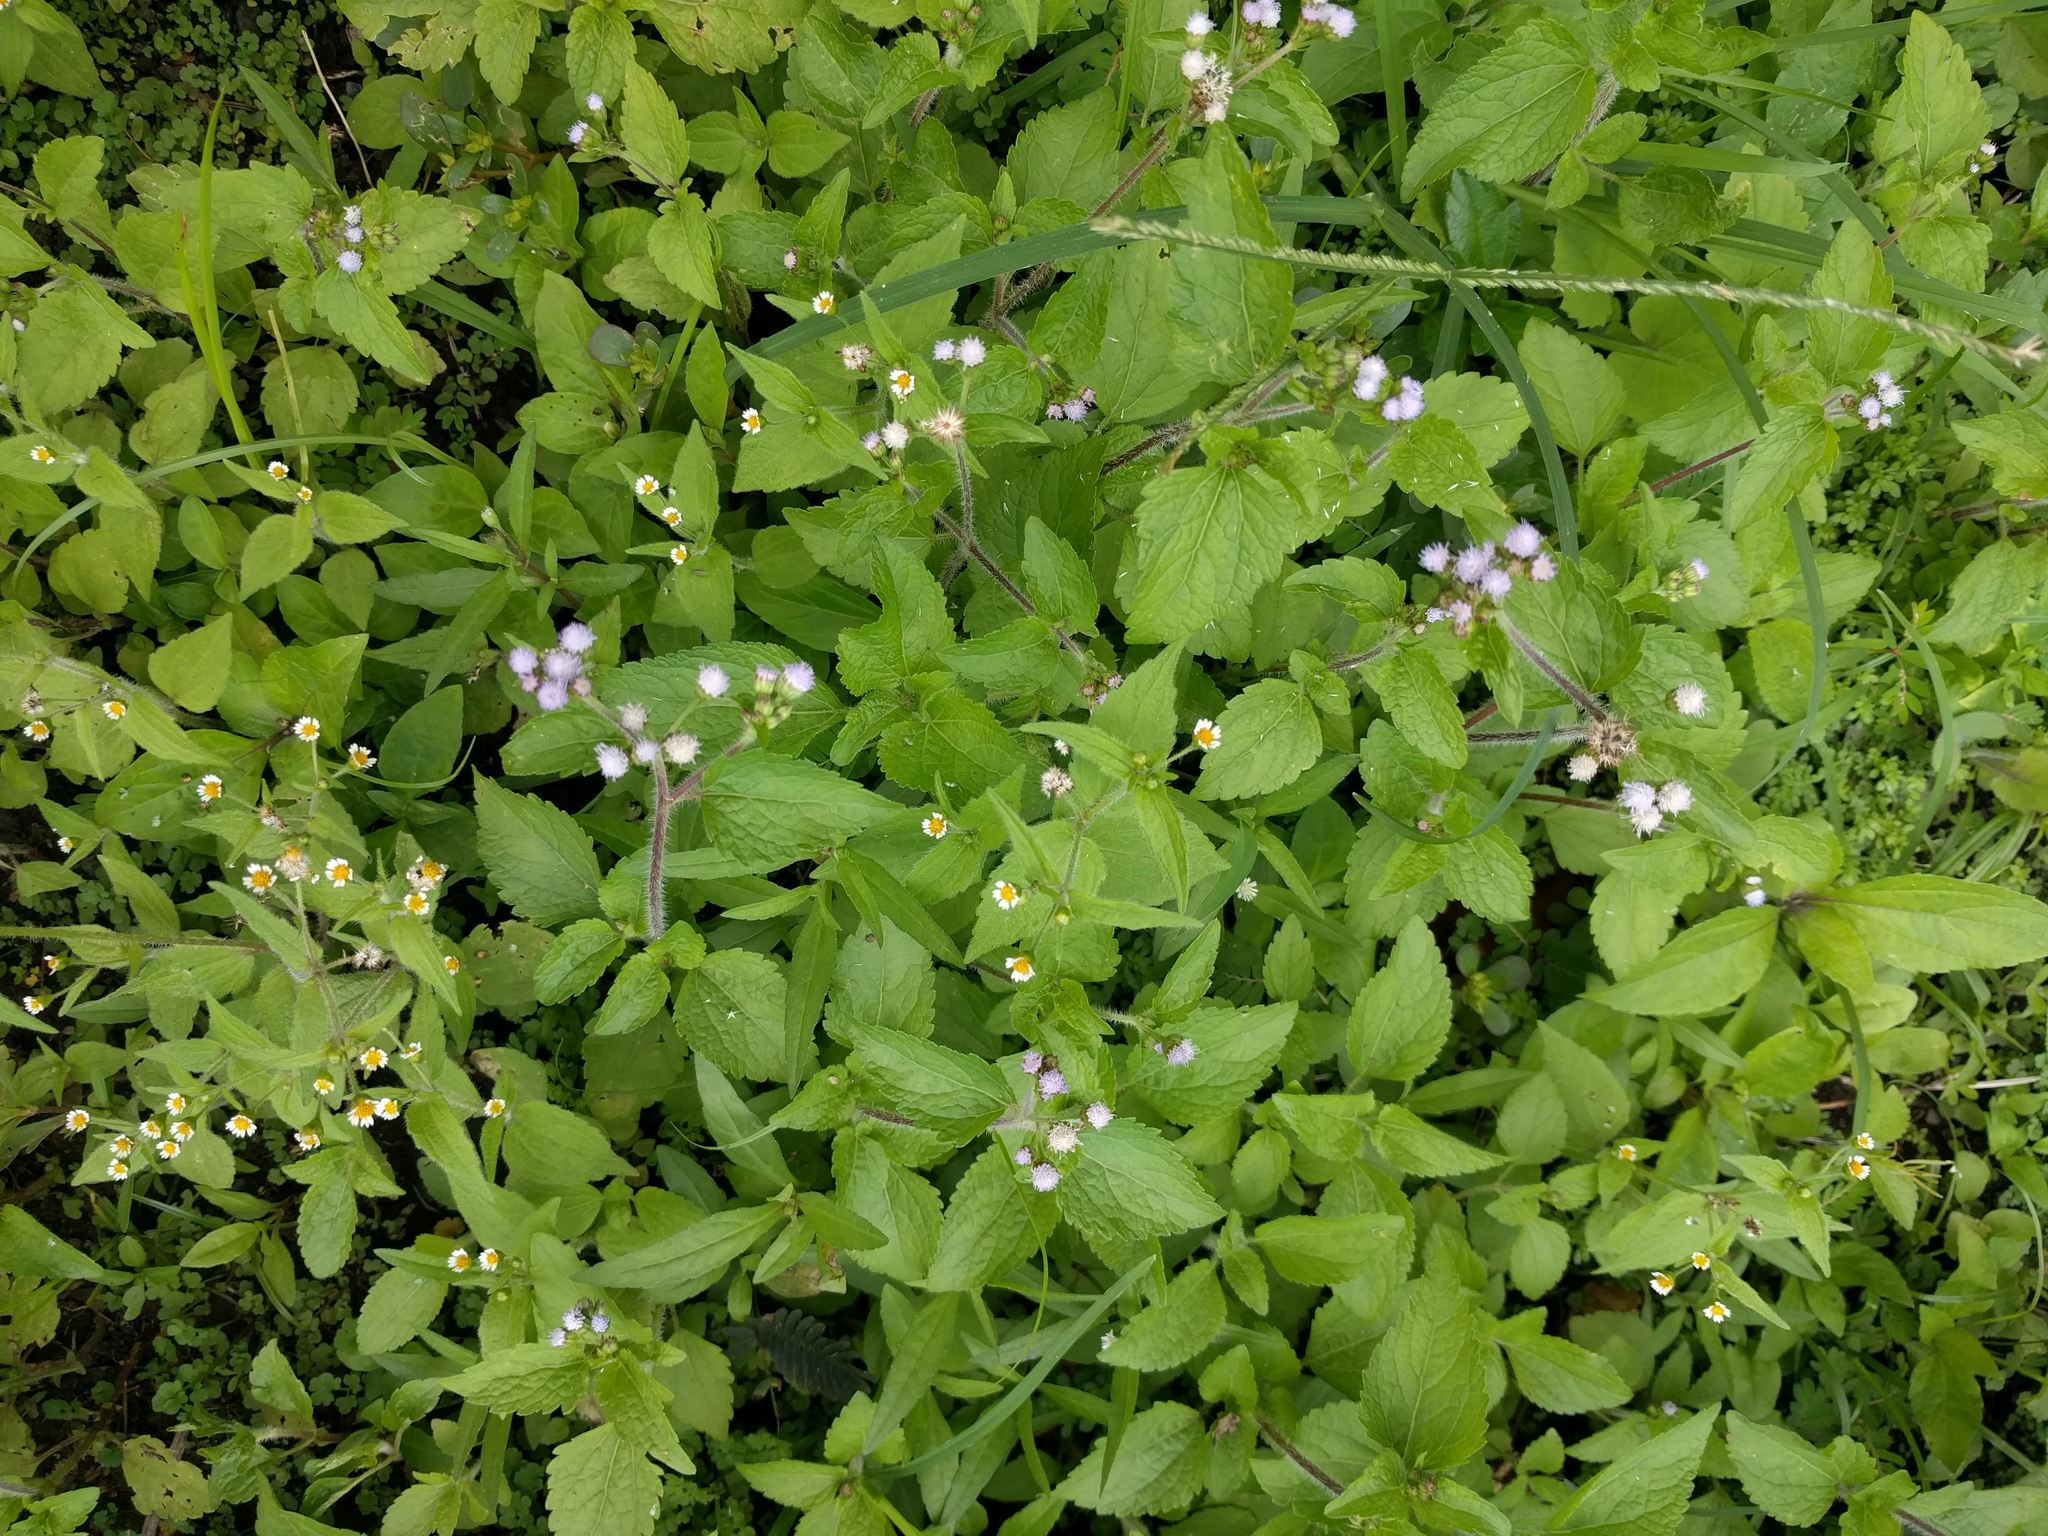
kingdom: Plantae
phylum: Tracheophyta
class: Magnoliopsida
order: Asterales
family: Asteraceae
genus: Ageratum
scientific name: Ageratum conyzoides
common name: Tropical whiteweed
